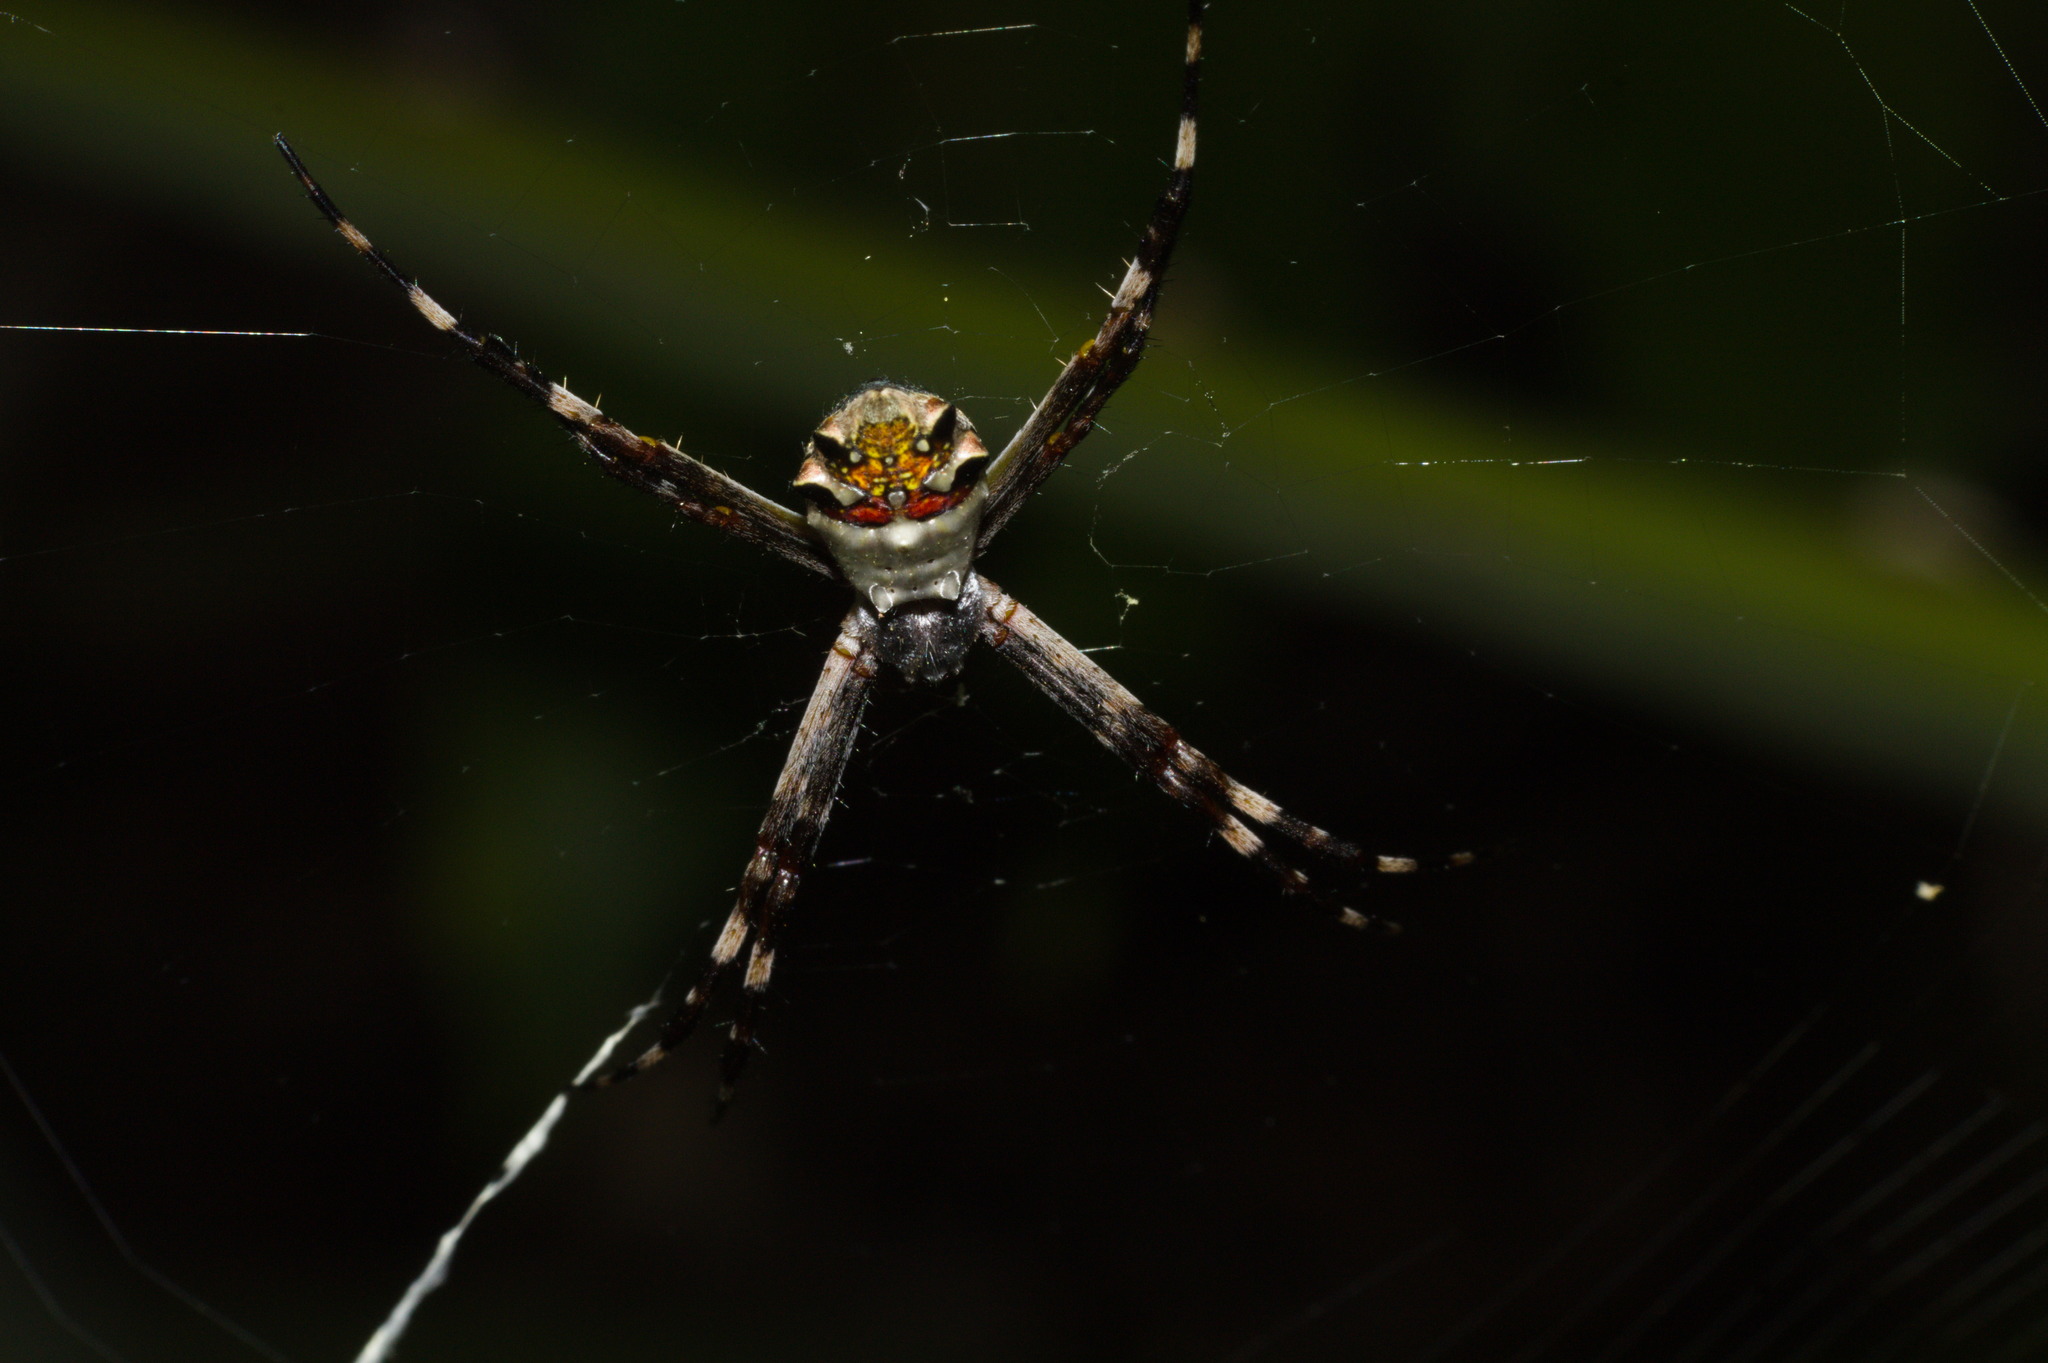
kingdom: Animalia
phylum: Arthropoda
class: Arachnida
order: Araneae
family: Araneidae
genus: Argiope
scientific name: Argiope argentata
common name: Orb weavers
